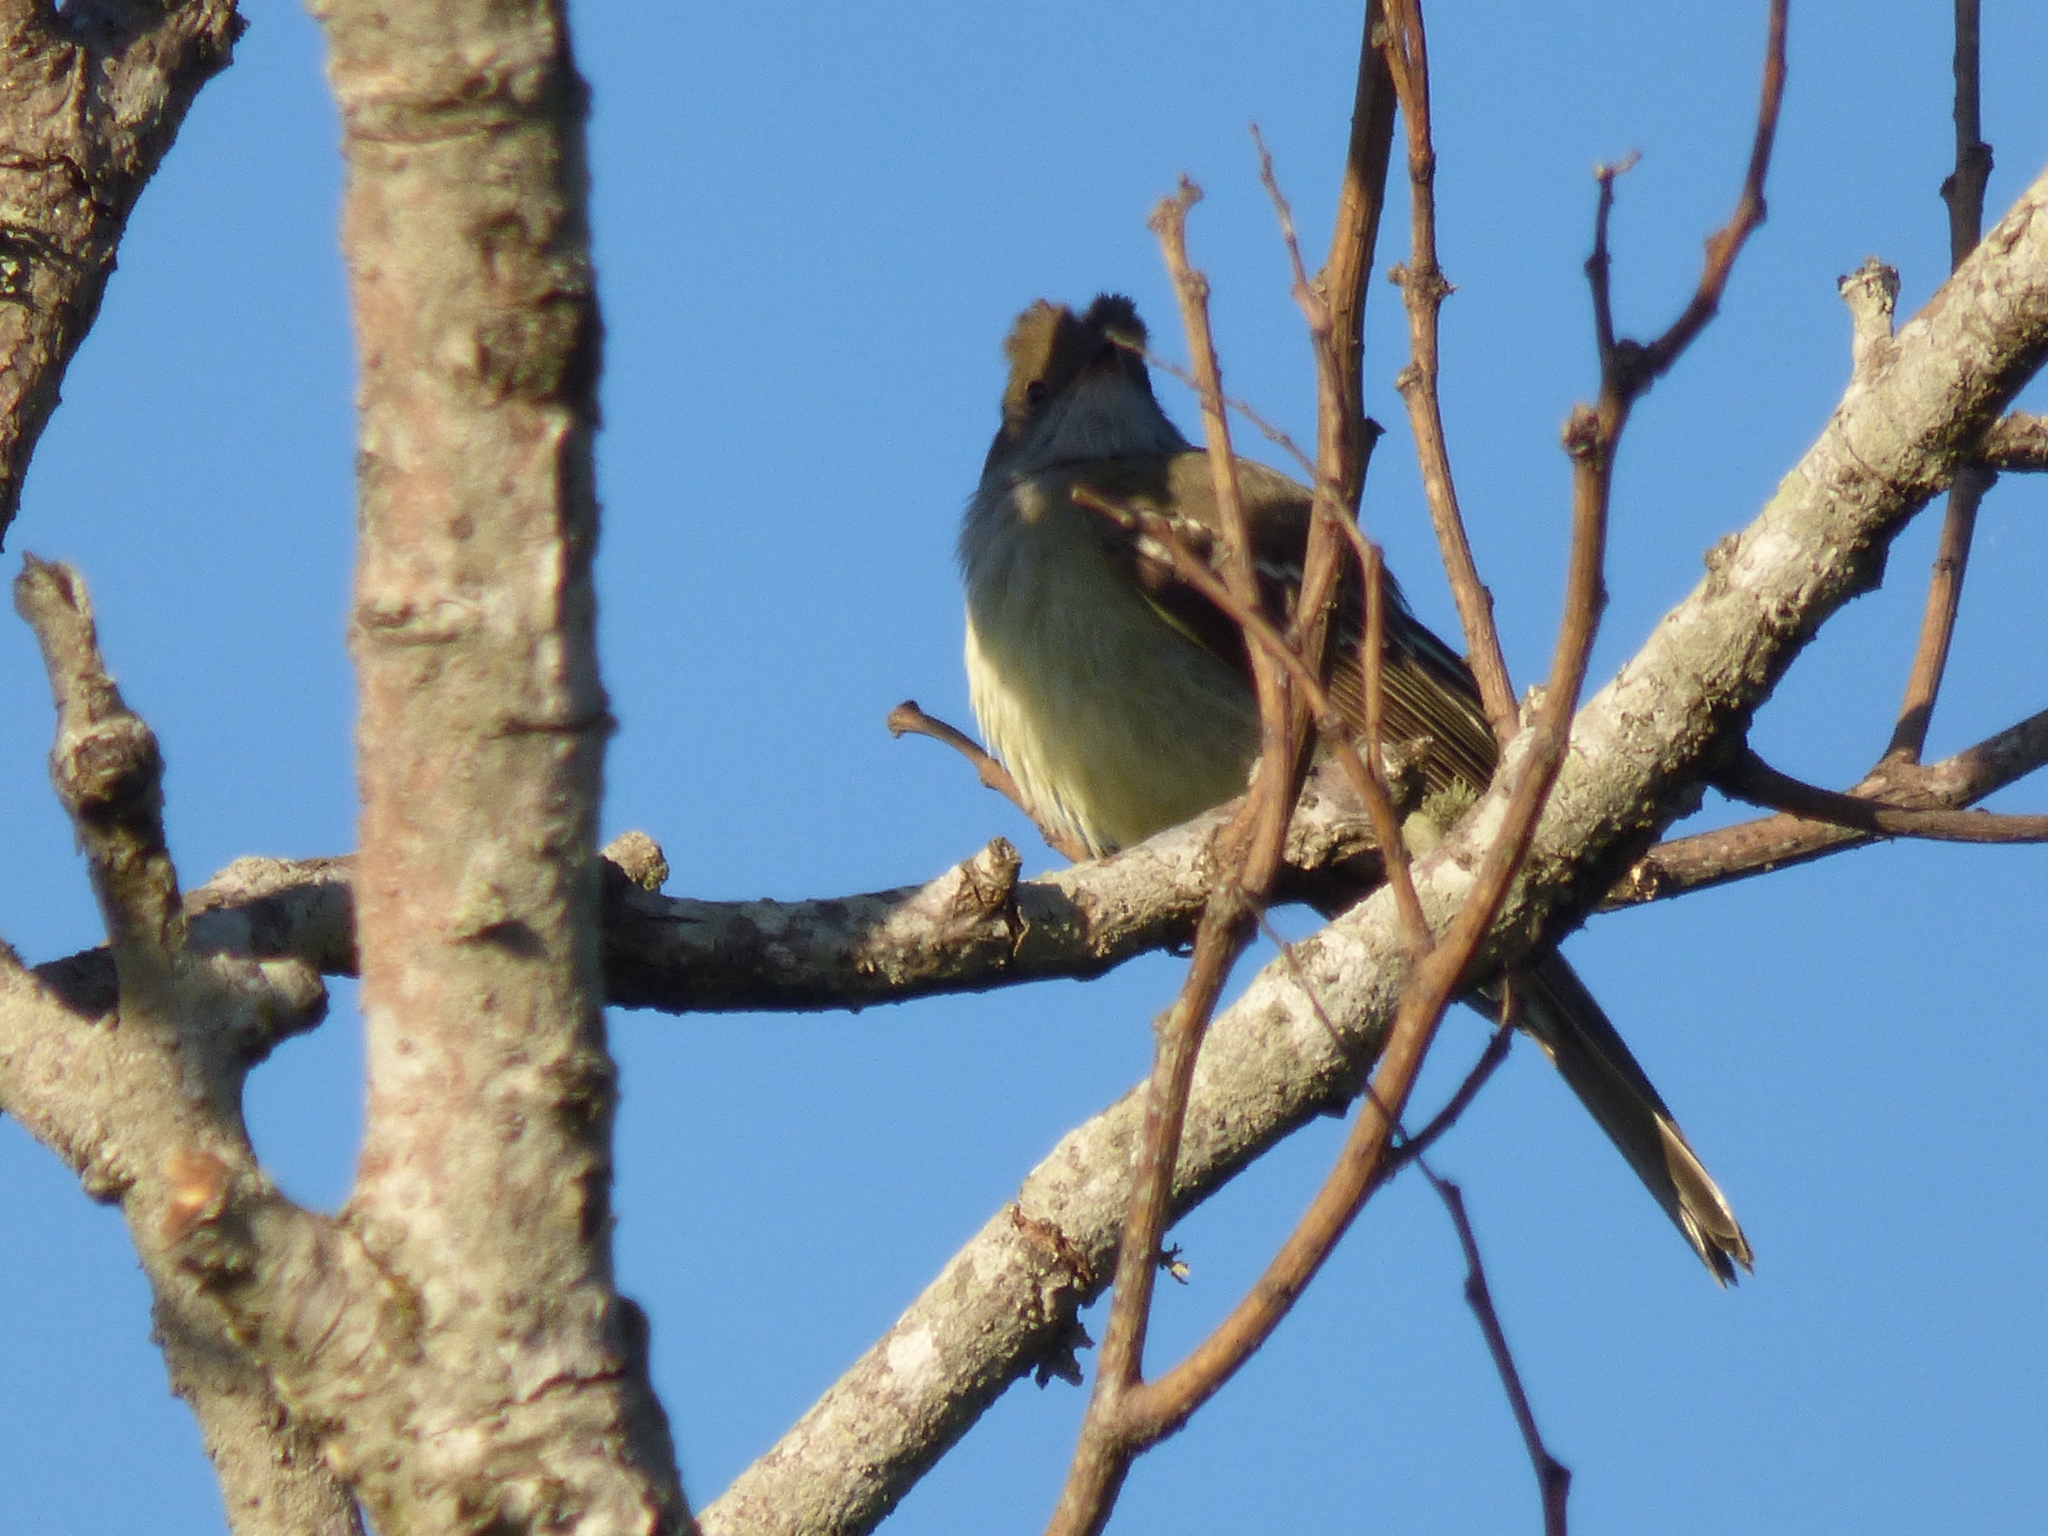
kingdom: Animalia
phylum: Chordata
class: Aves
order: Passeriformes
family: Tyrannidae
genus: Elaenia
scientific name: Elaenia spectabilis
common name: Large elaenia
